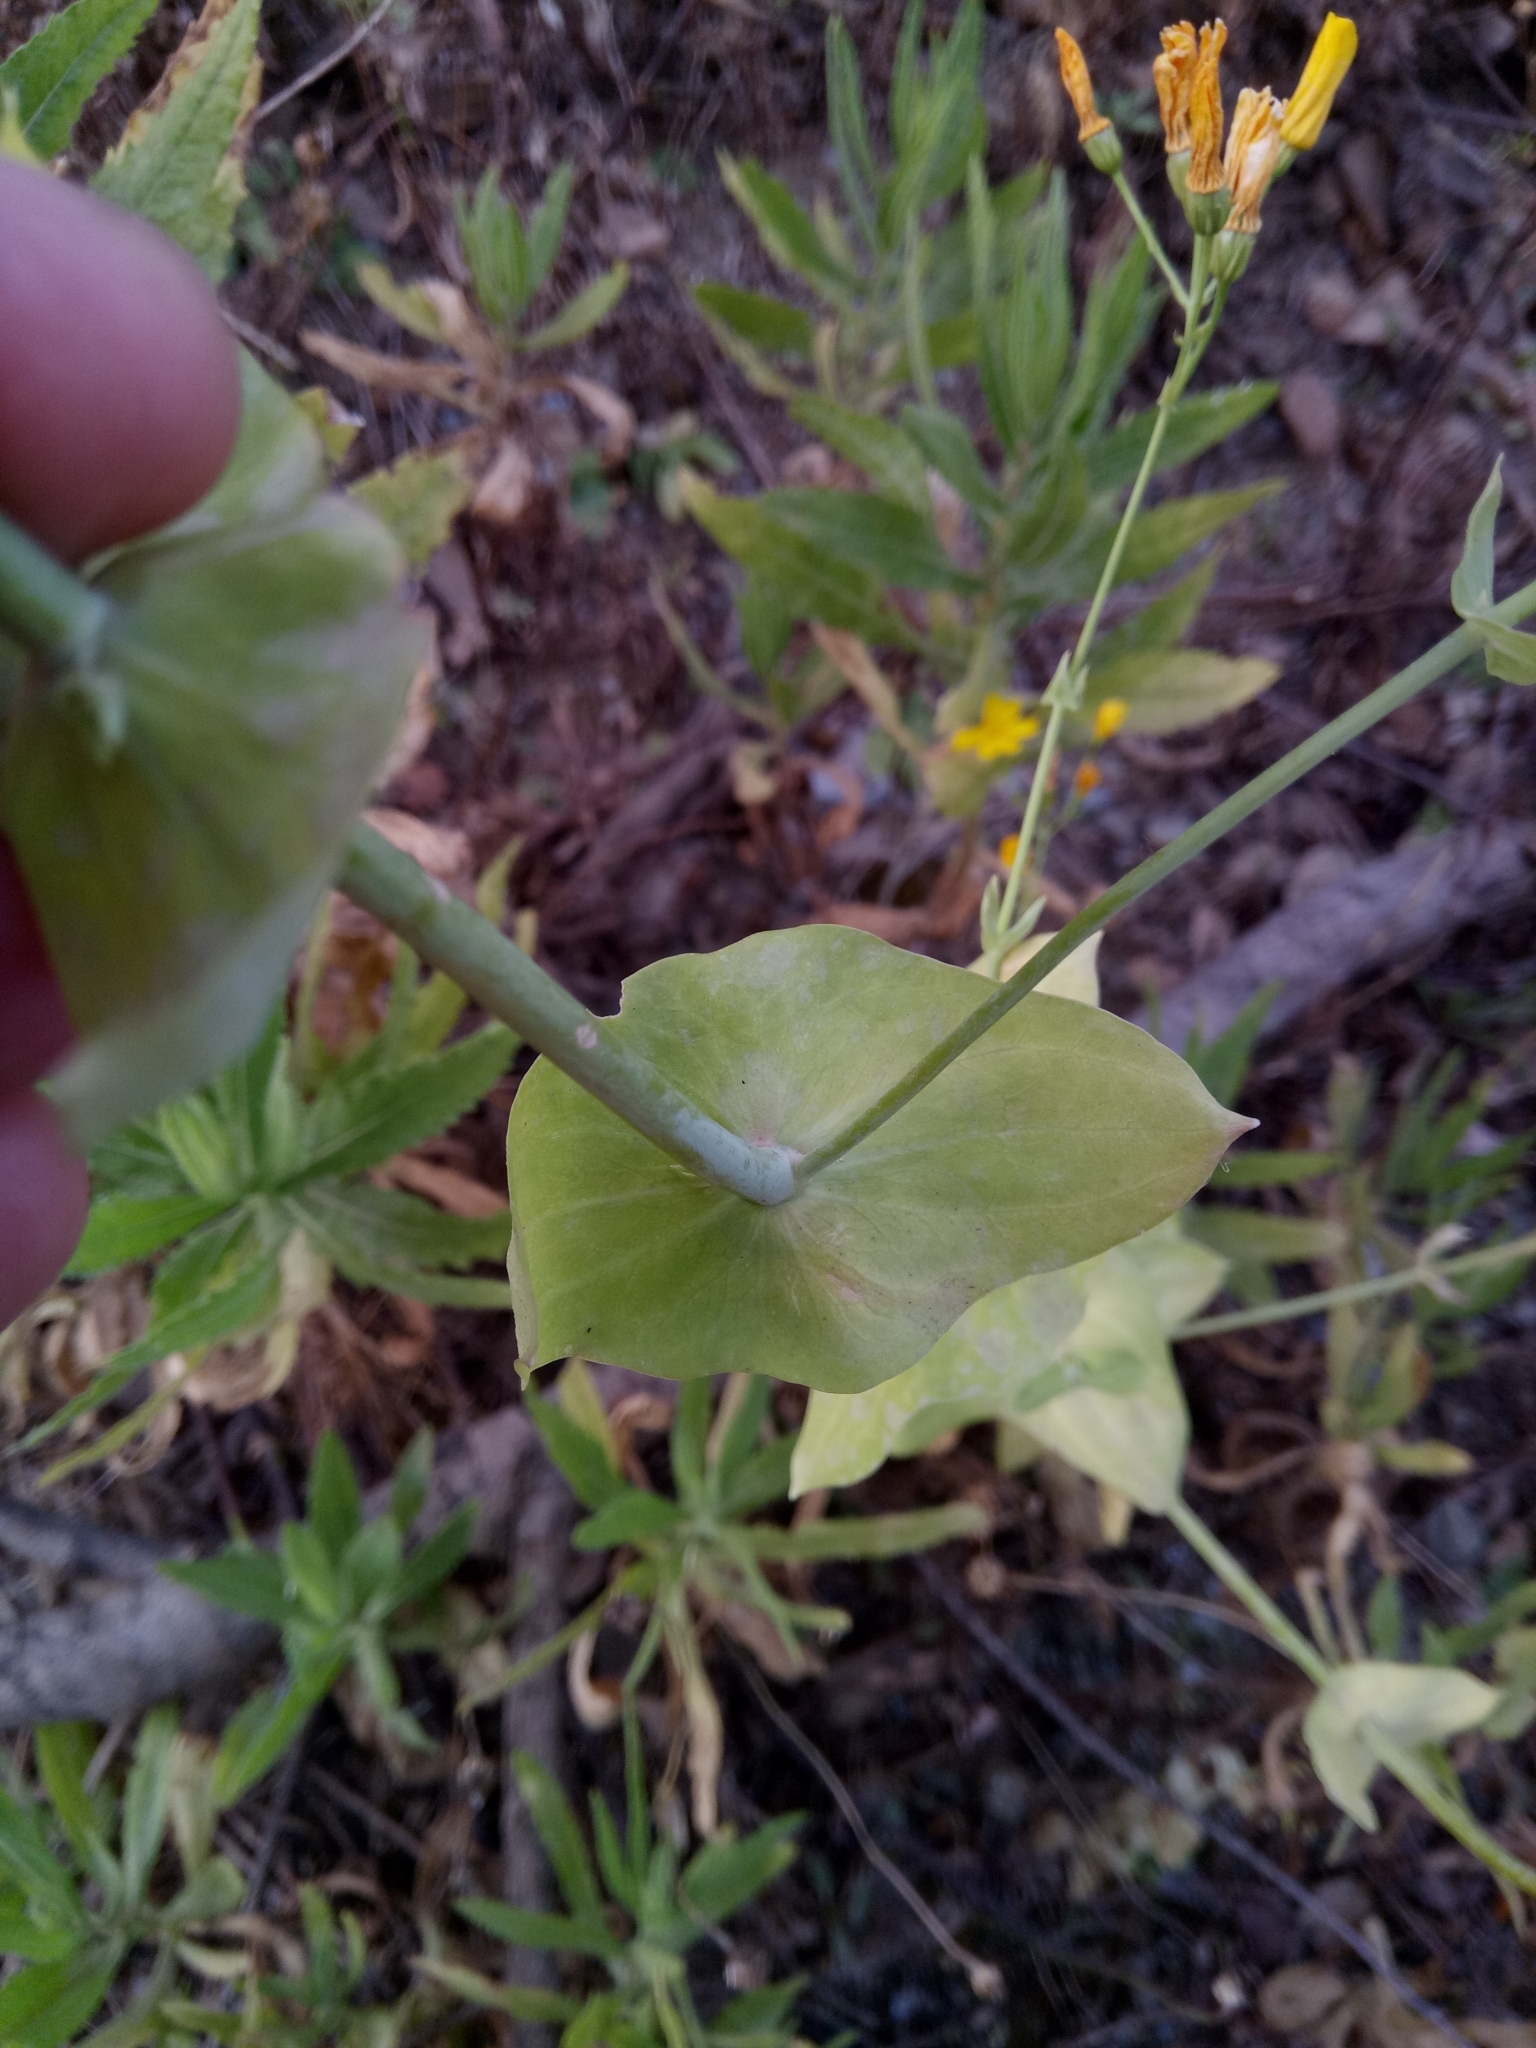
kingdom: Plantae
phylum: Tracheophyta
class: Magnoliopsida
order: Gentianales
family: Gentianaceae
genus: Blackstonia
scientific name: Blackstonia grandiflora
